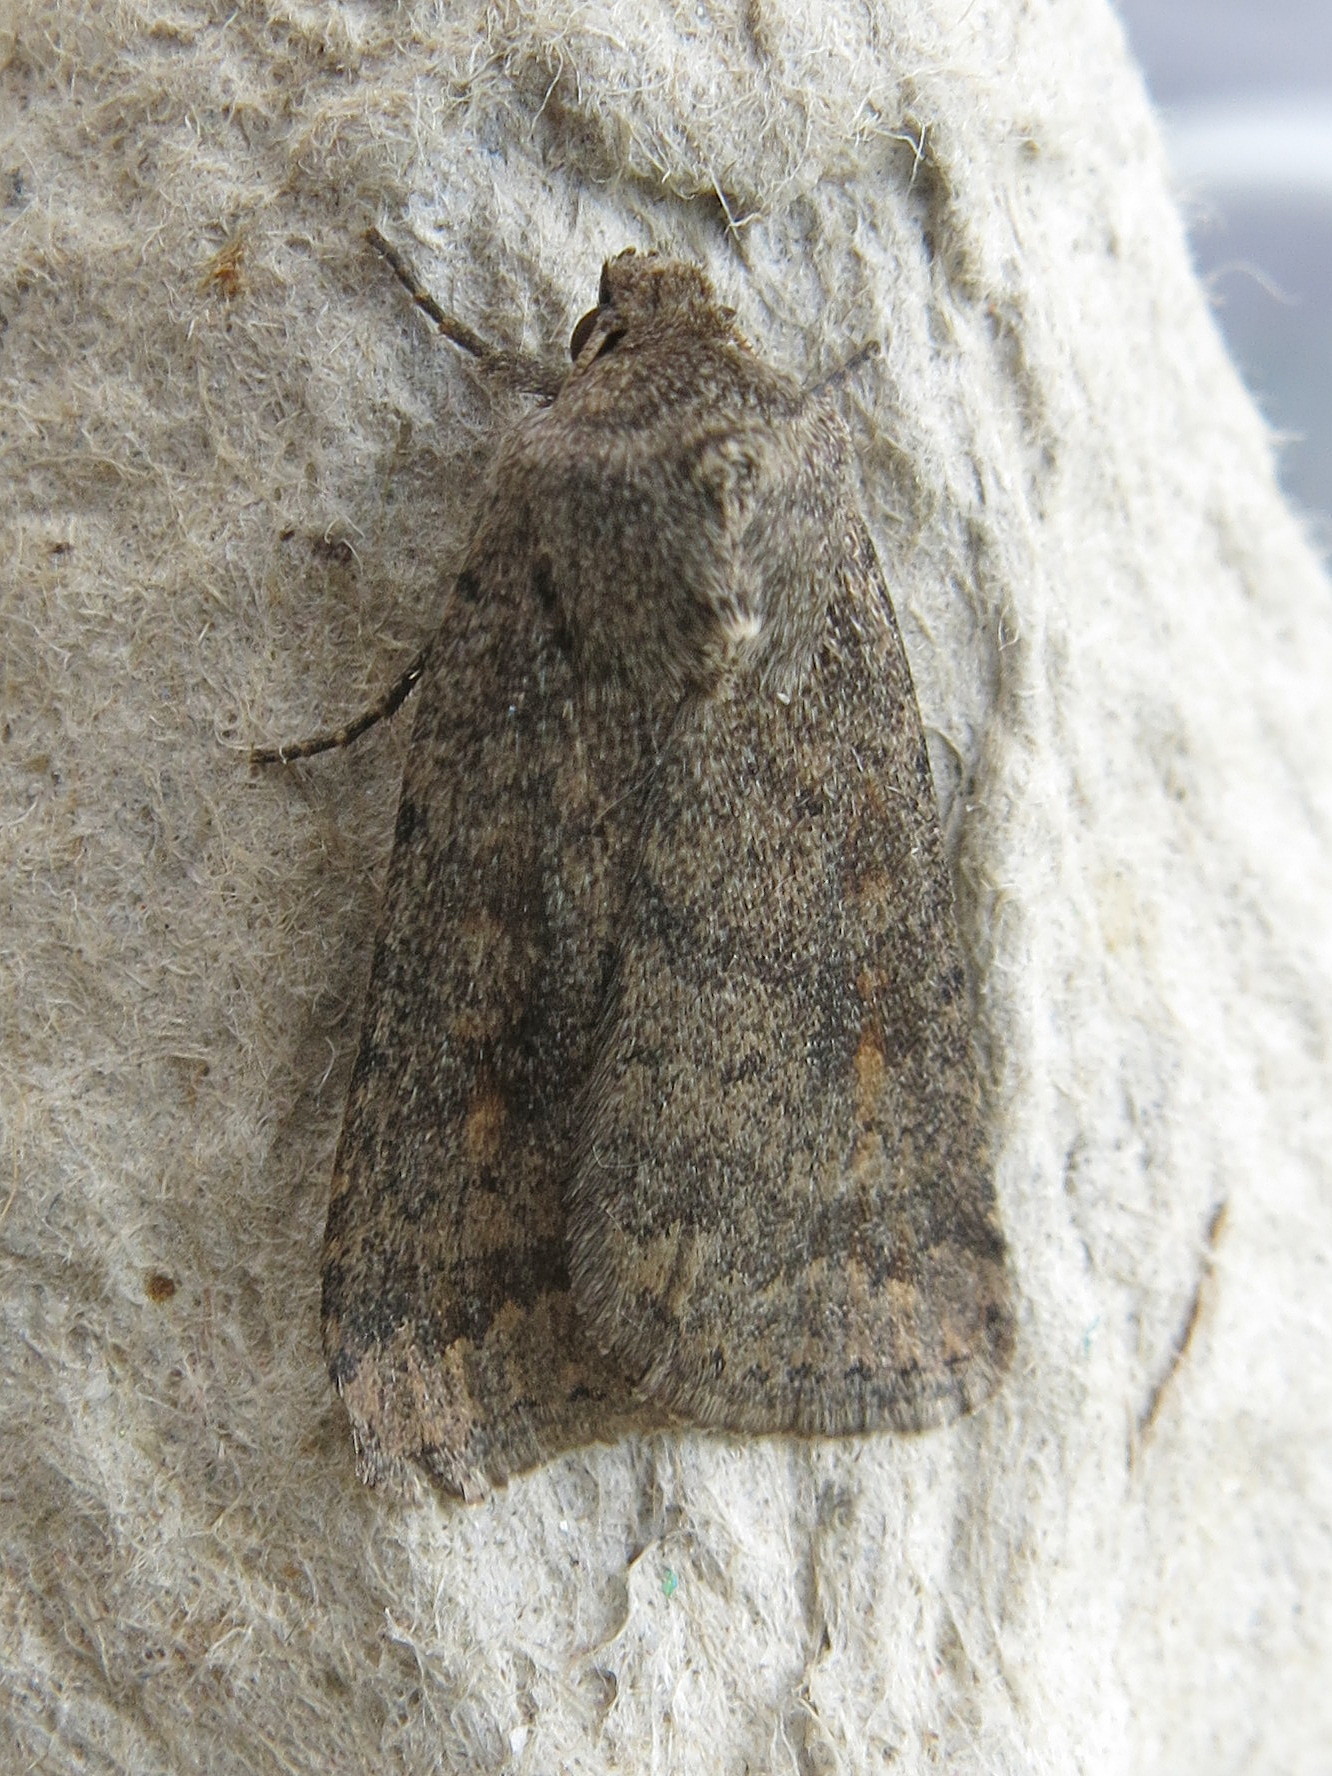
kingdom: Animalia
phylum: Arthropoda
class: Insecta
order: Lepidoptera
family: Noctuidae
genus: Caradrina
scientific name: Caradrina morpheus
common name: Mottled rustic
